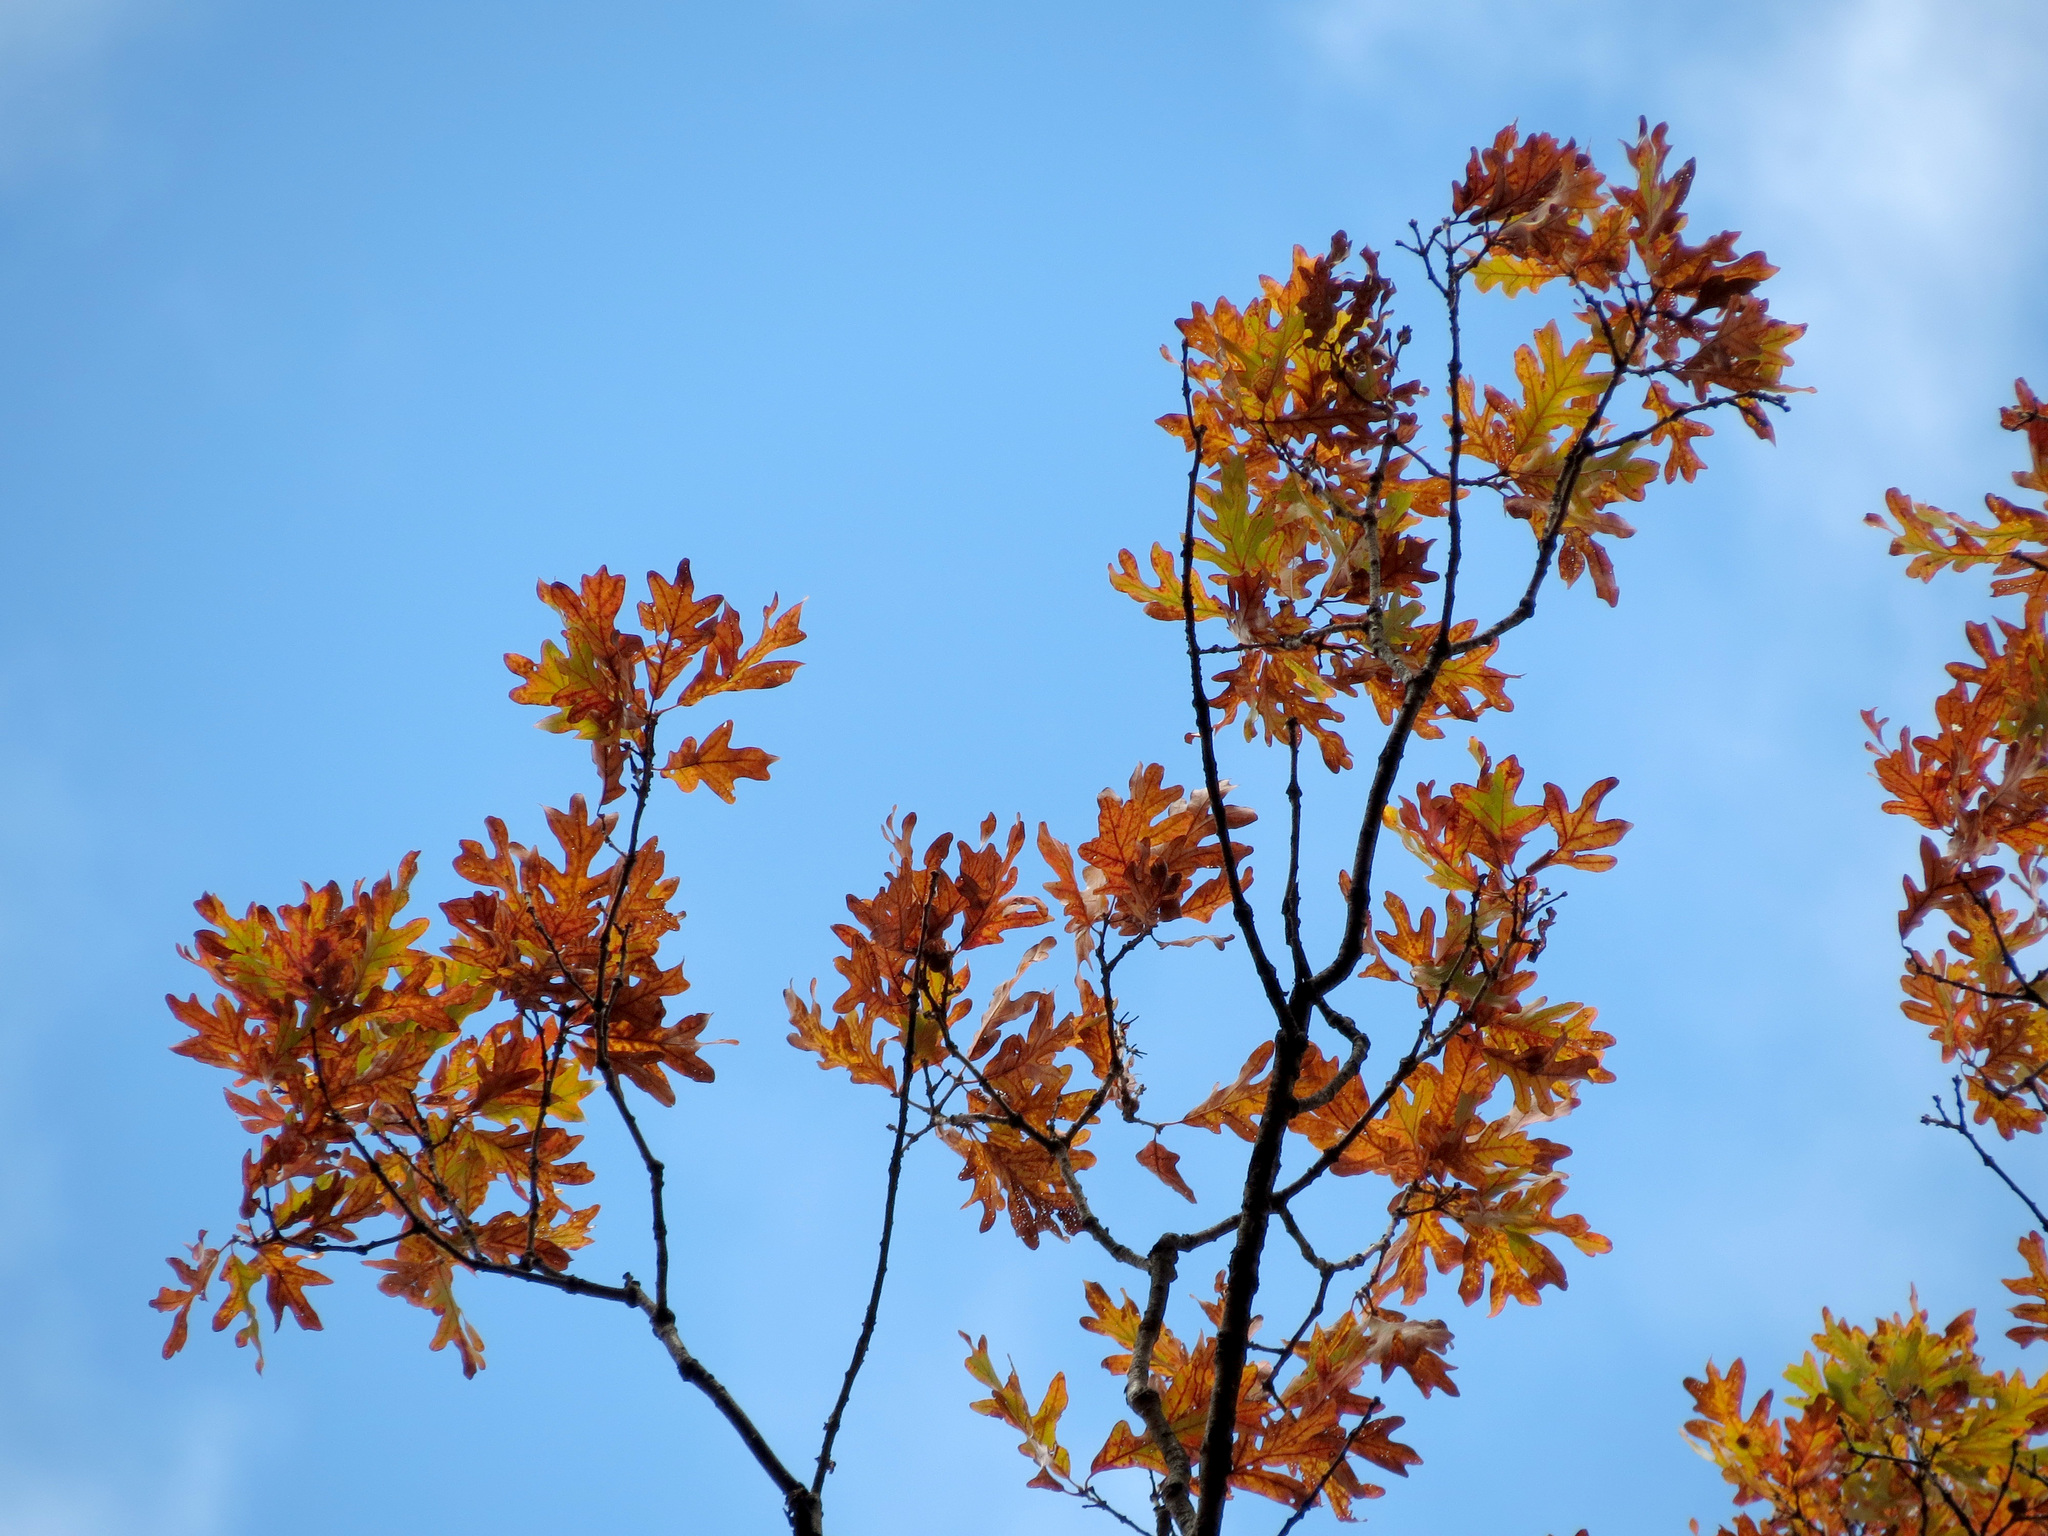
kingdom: Plantae
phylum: Tracheophyta
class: Magnoliopsida
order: Fagales
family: Fagaceae
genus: Quercus
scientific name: Quercus alba
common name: White oak
